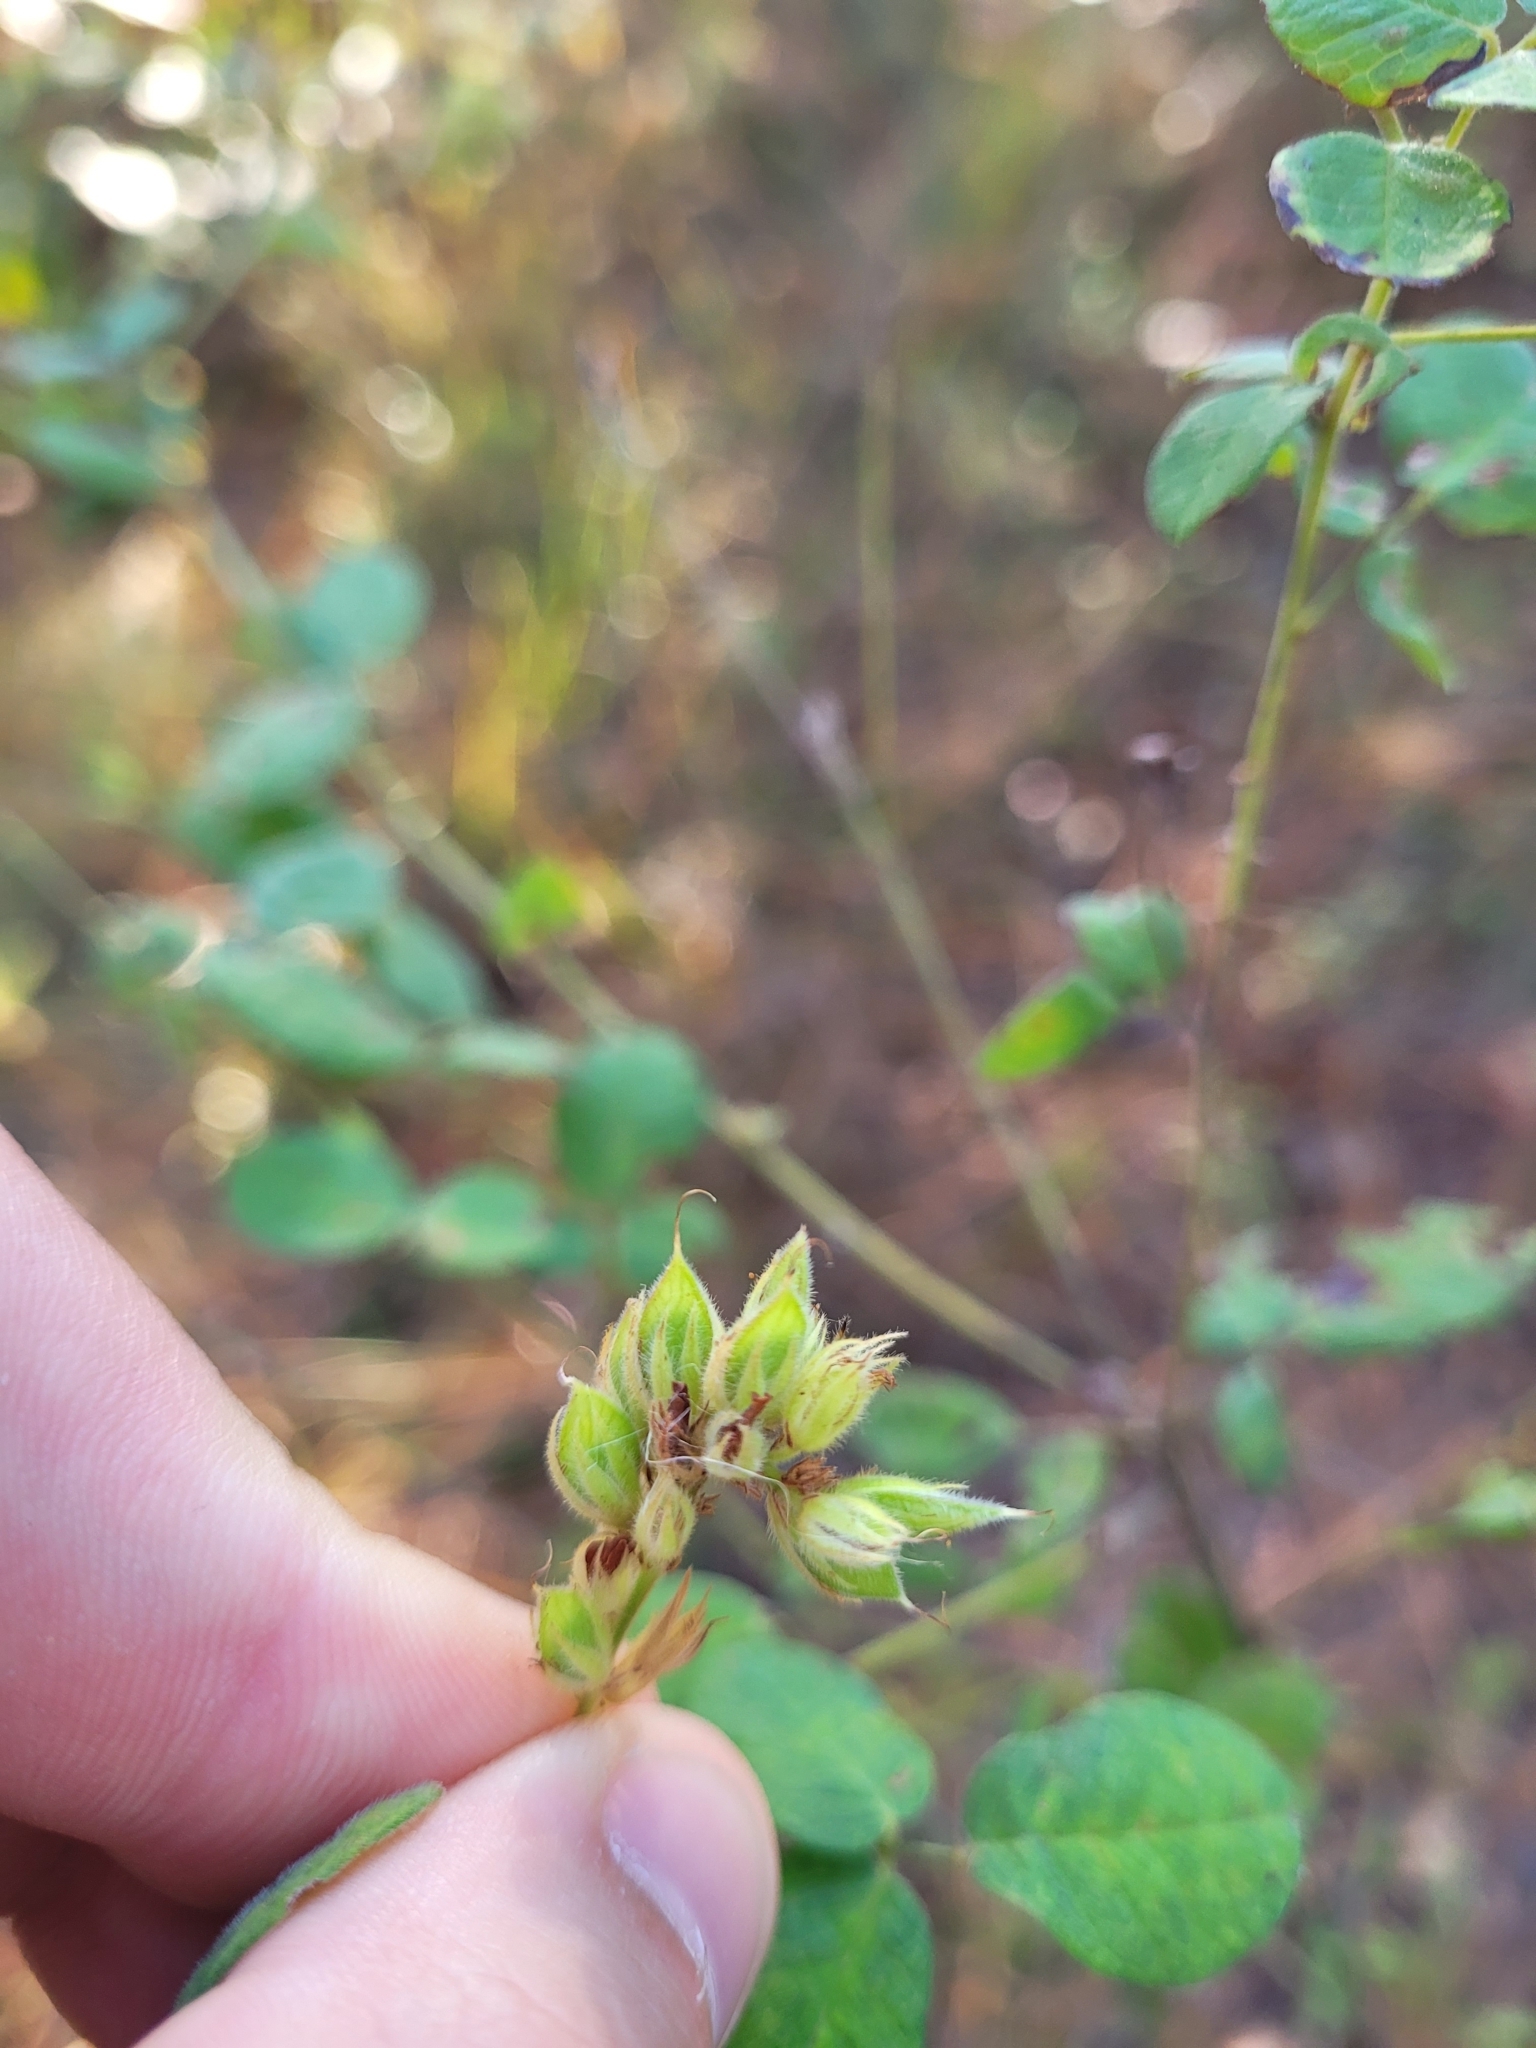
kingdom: Plantae
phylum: Tracheophyta
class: Magnoliopsida
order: Fabales
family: Fabaceae
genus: Lespedeza
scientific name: Lespedeza hirta
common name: Hairy lespedeza
